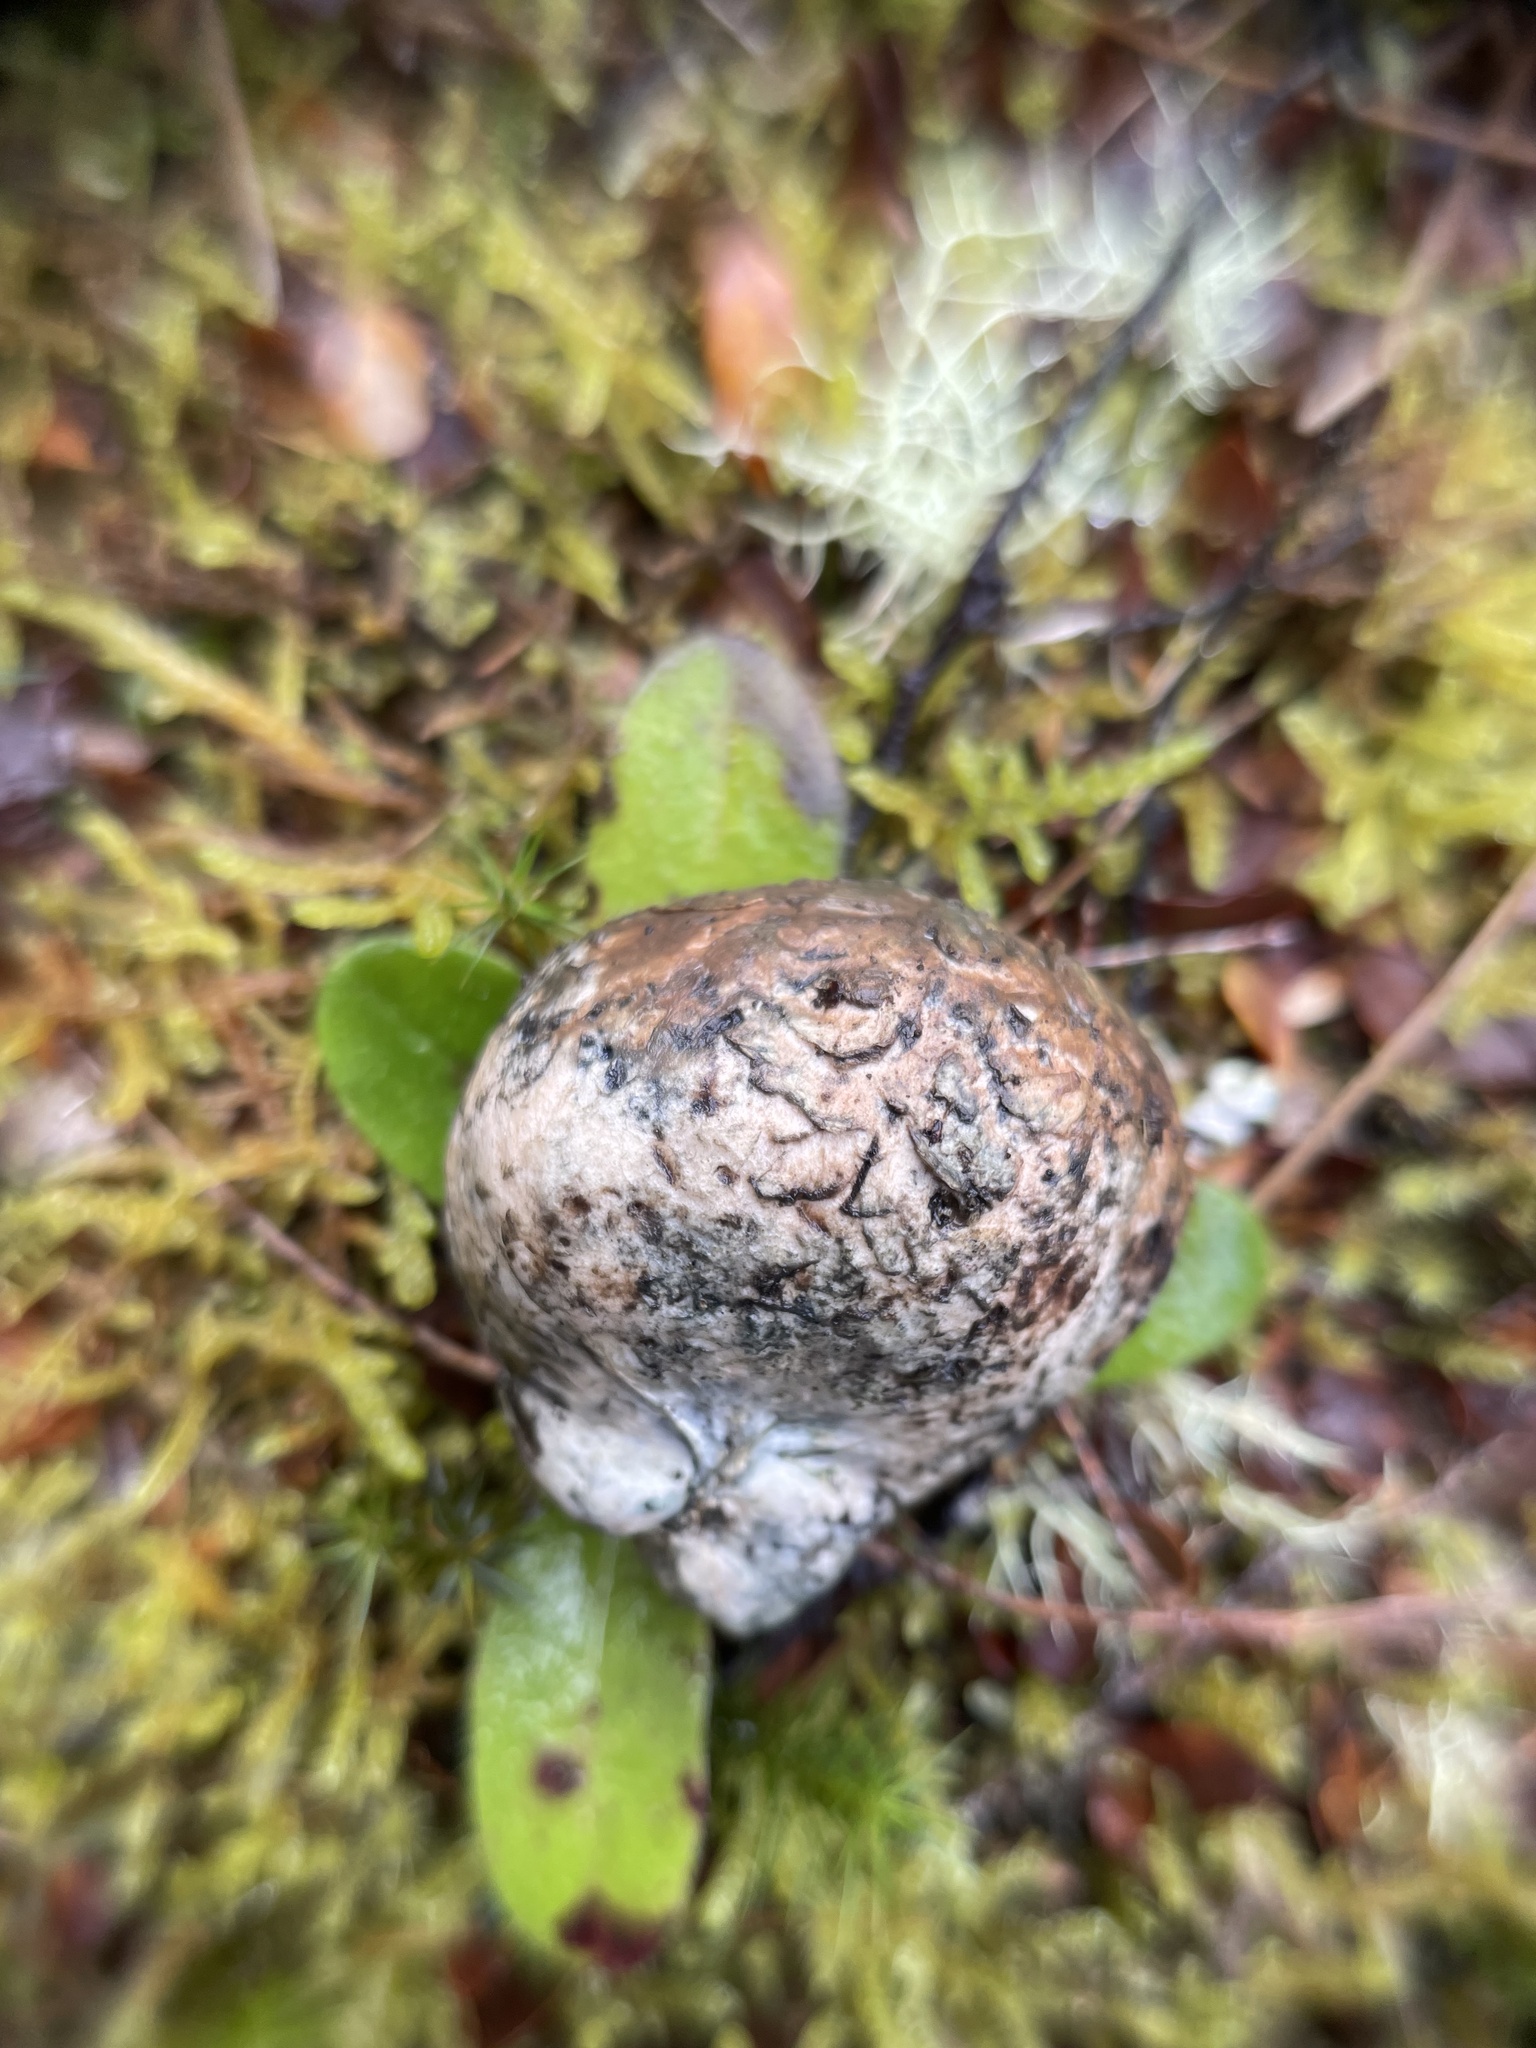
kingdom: Fungi
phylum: Basidiomycota
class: Agaricomycetes
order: Boletales
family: Boletaceae
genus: Octaviania
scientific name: Octaviania tasmanica
